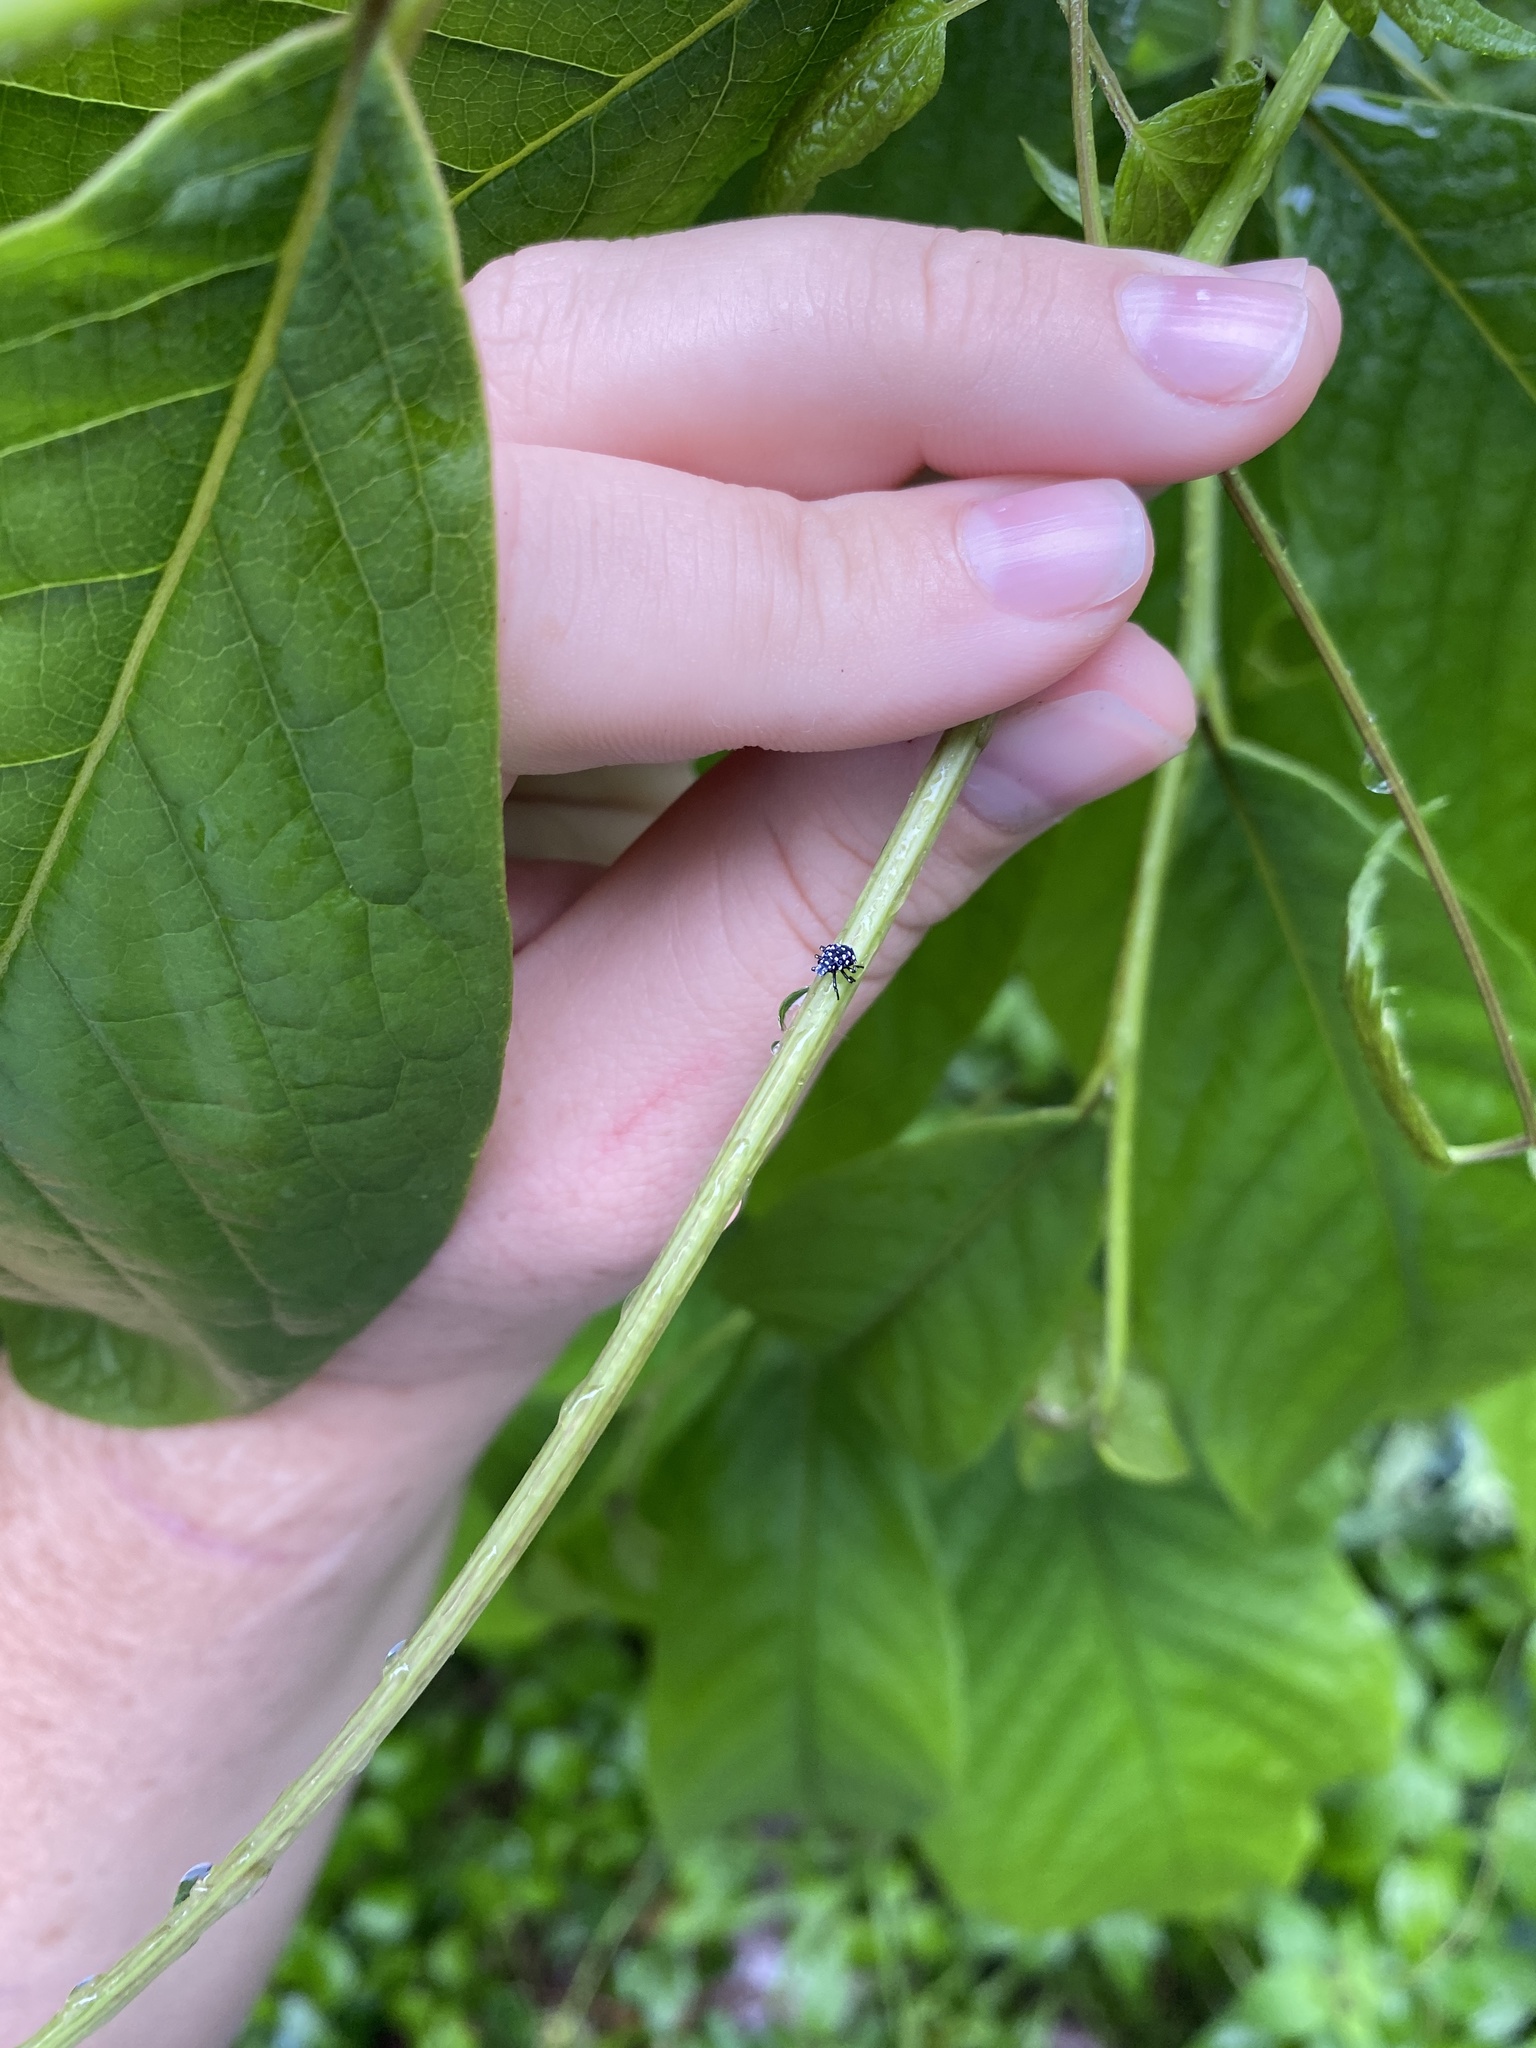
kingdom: Animalia
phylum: Arthropoda
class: Insecta
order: Hemiptera
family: Fulgoridae
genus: Lycorma
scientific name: Lycorma delicatula
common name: Spotted lanternfly
